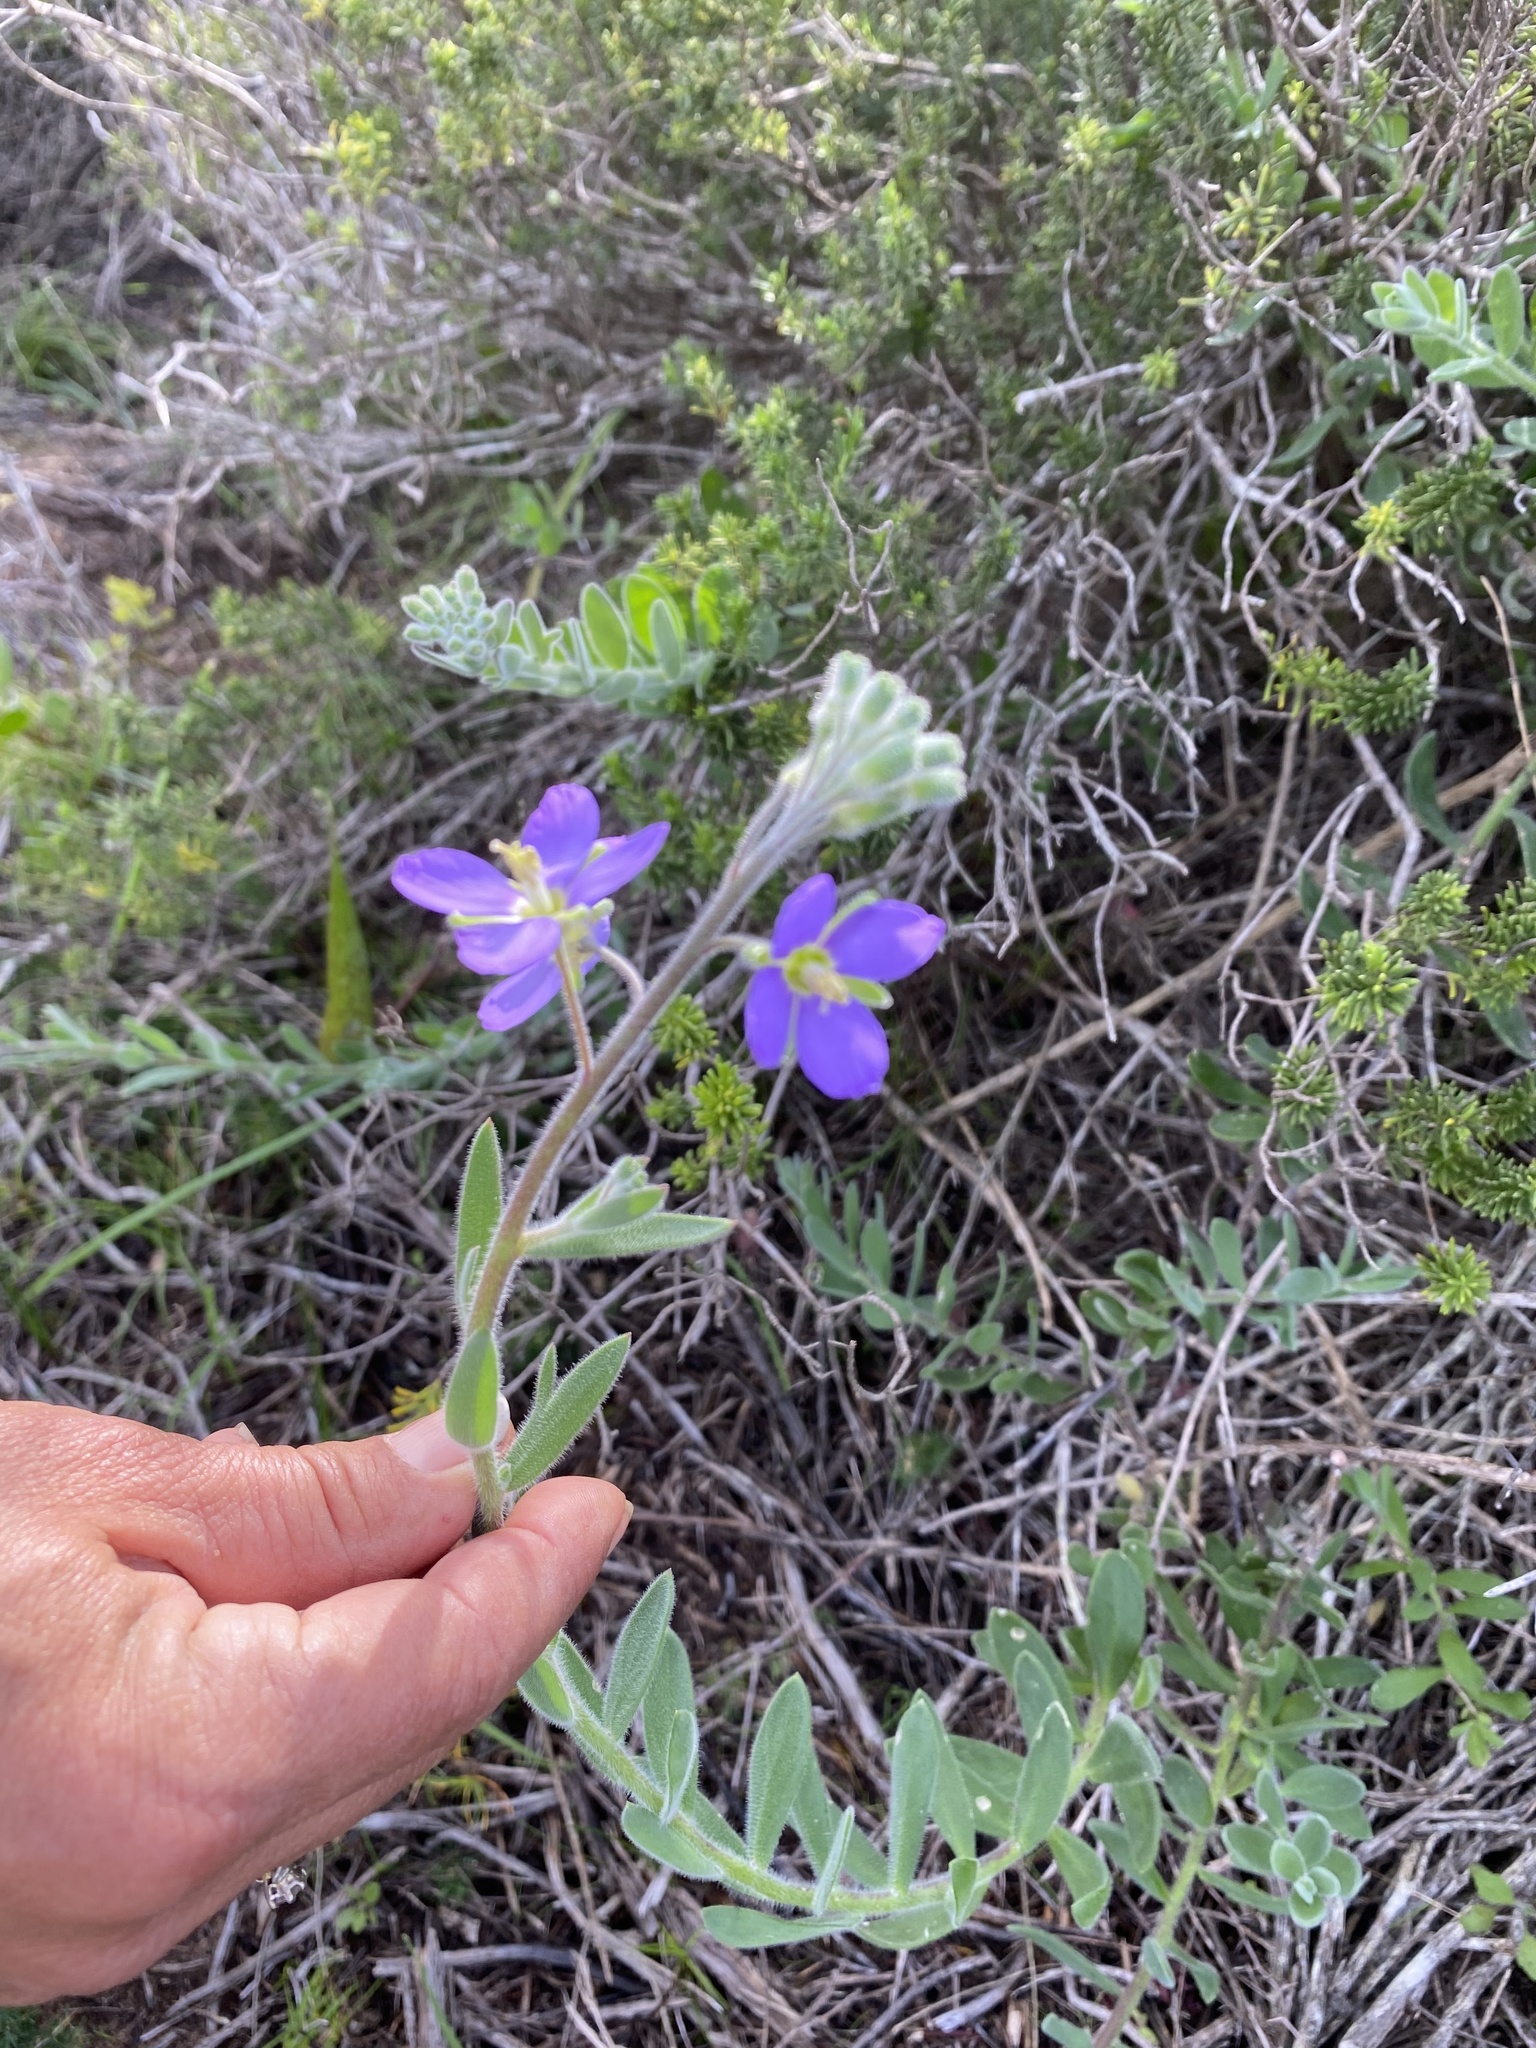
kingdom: Plantae
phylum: Tracheophyta
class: Magnoliopsida
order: Brassicales
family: Brassicaceae
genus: Heliophila
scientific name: Heliophila linearis
